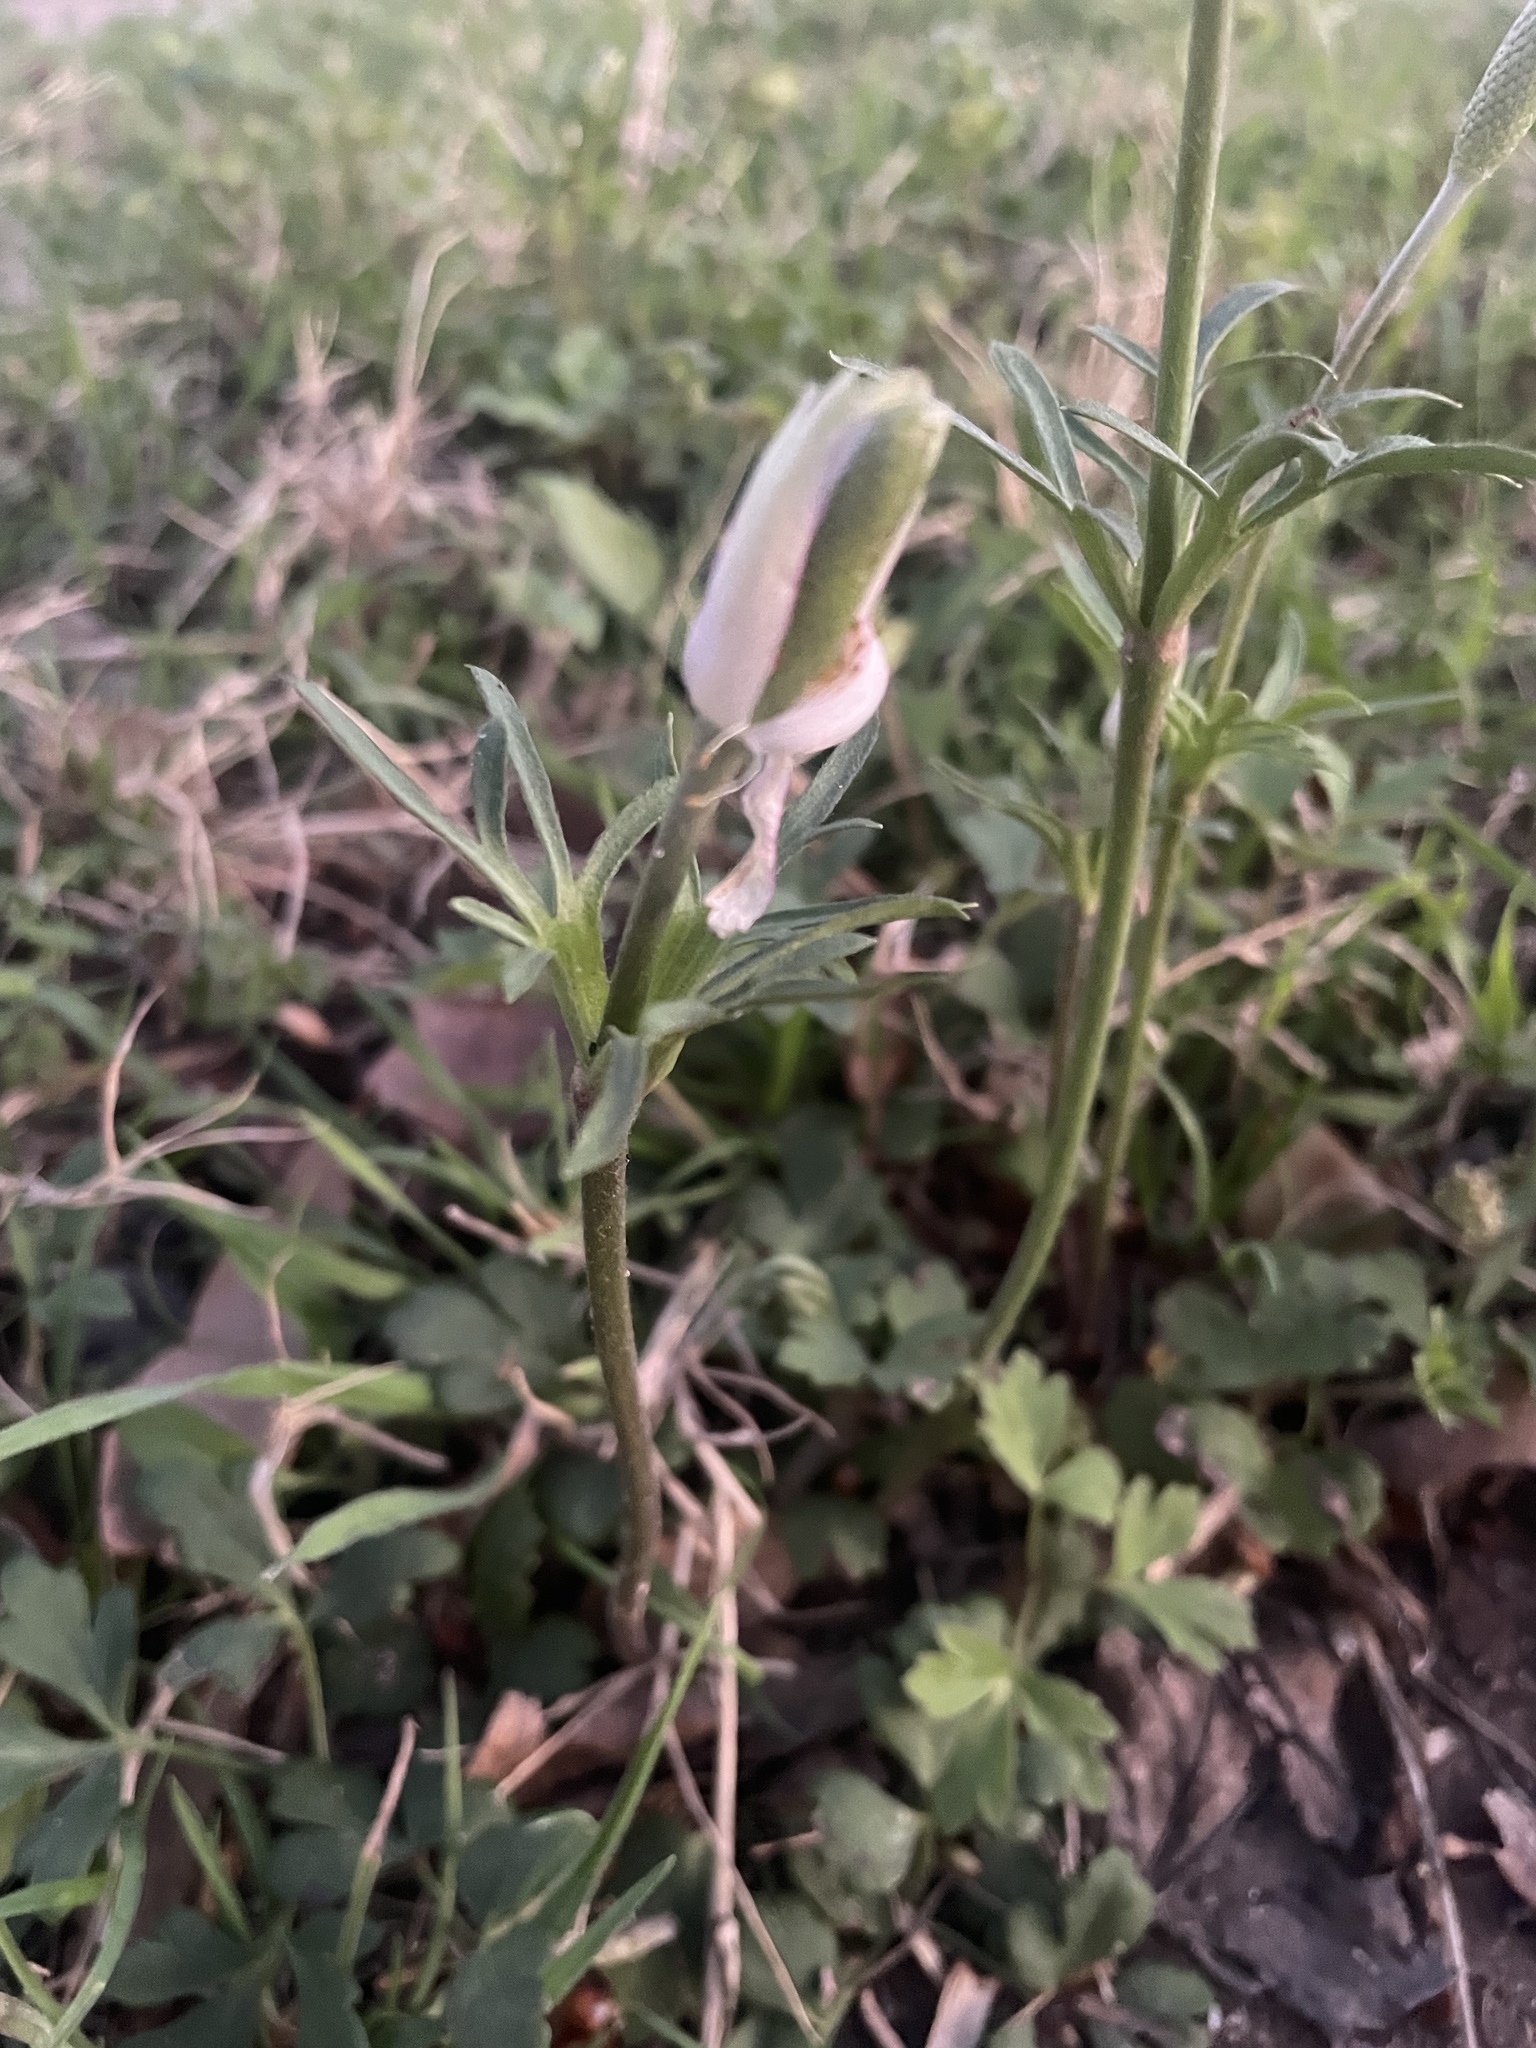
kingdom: Plantae
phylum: Tracheophyta
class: Magnoliopsida
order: Ranunculales
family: Ranunculaceae
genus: Anemone
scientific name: Anemone berlandieri
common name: Ten-petal anemone
